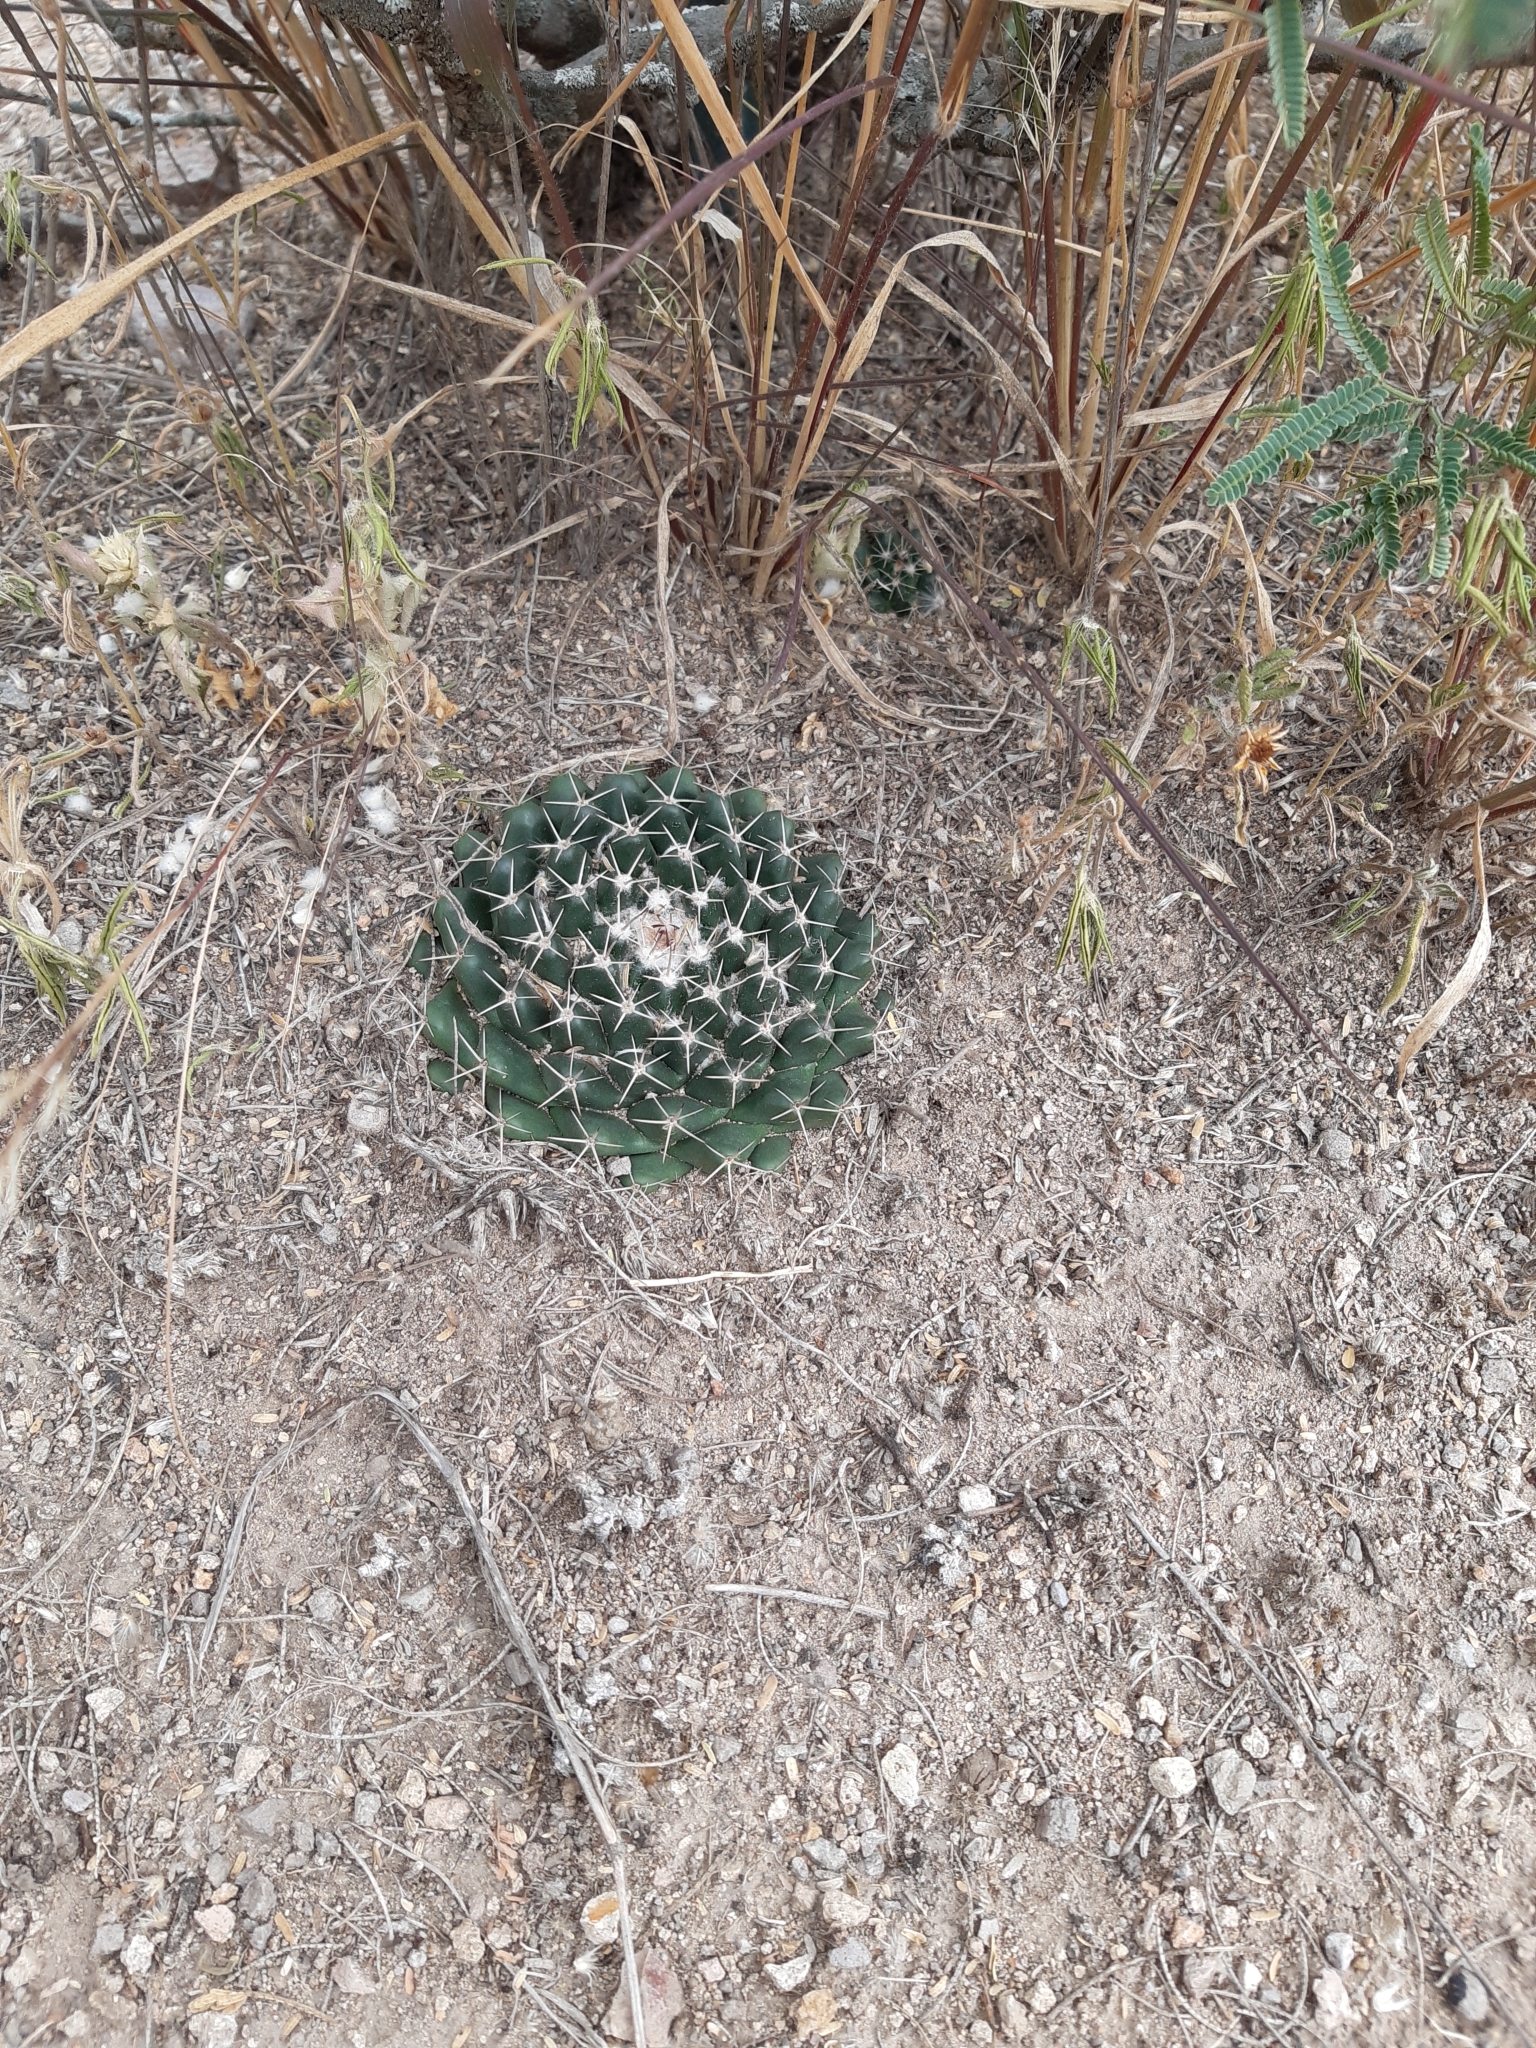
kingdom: Plantae
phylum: Tracheophyta
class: Magnoliopsida
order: Caryophyllales
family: Cactaceae
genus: Mammillaria
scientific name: Mammillaria uncinata
